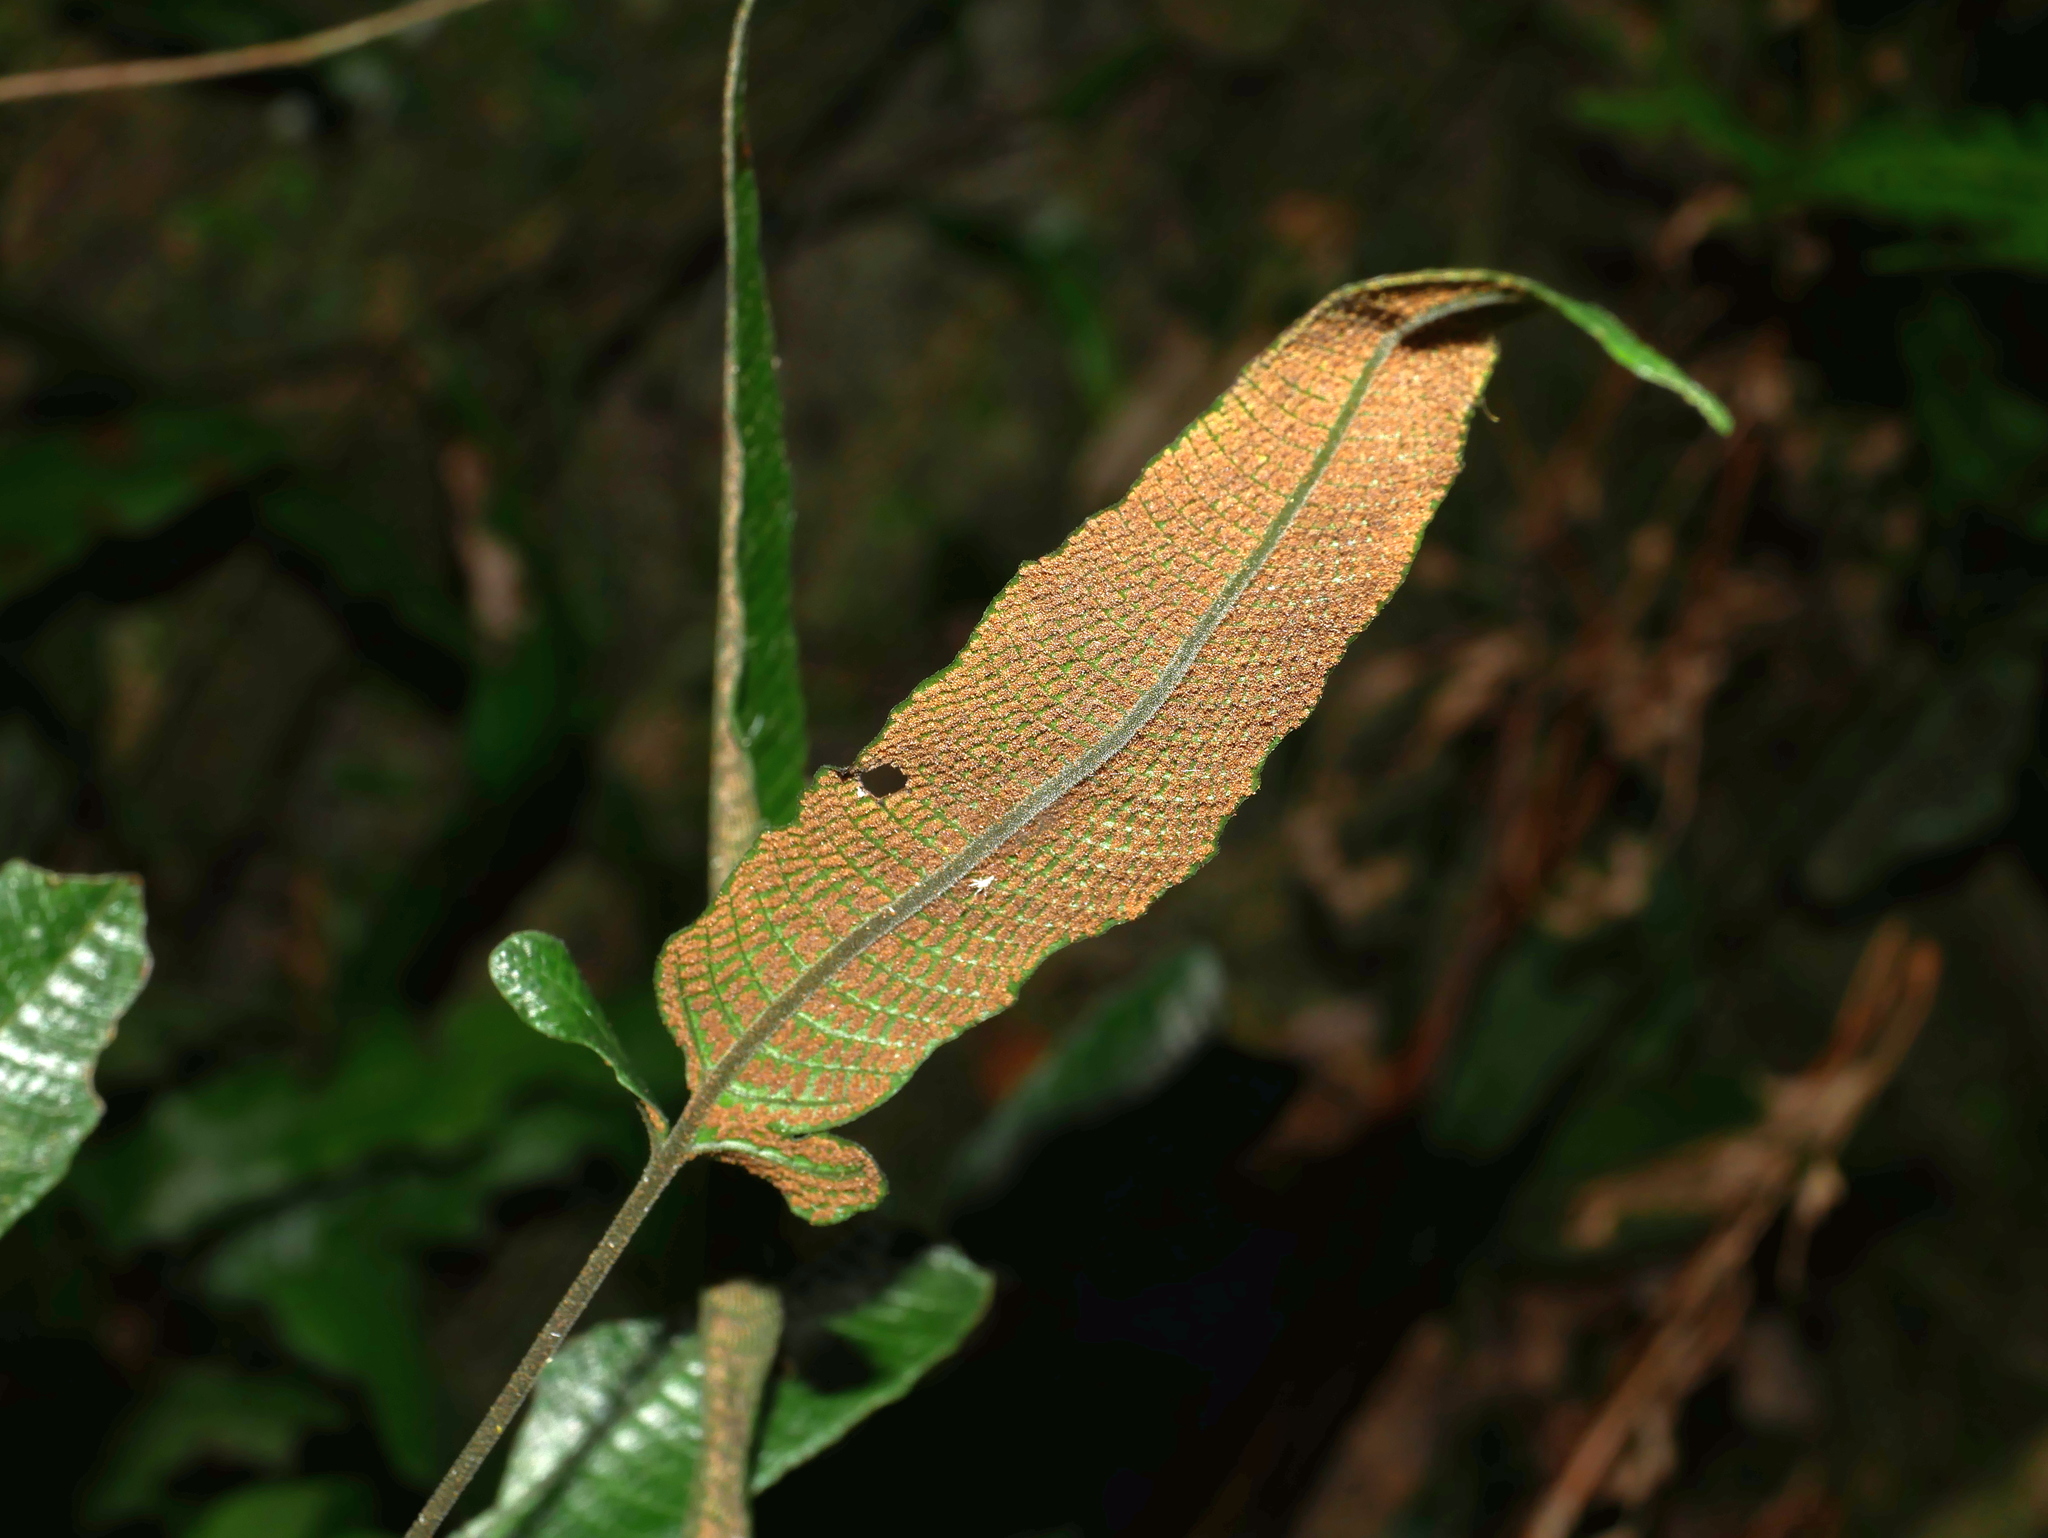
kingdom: Plantae
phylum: Tracheophyta
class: Polypodiopsida
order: Polypodiales
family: Thelypteridaceae
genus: Grypothrix
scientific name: Grypothrix triphylla
